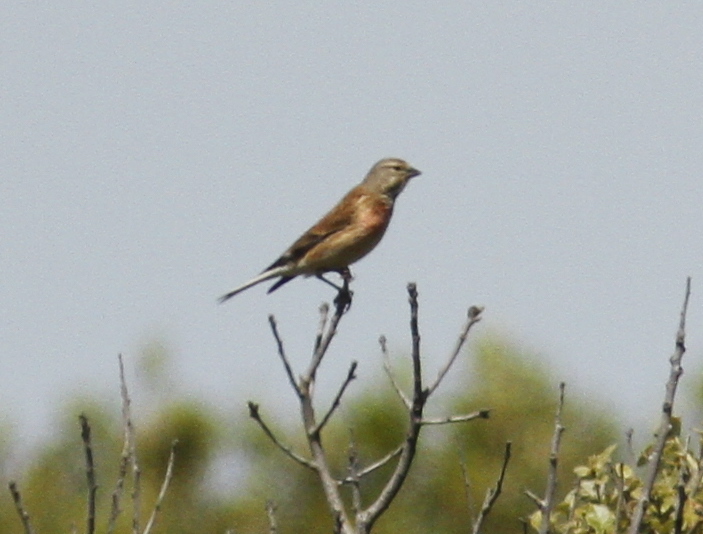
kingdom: Animalia
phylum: Chordata
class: Aves
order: Passeriformes
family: Fringillidae
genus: Linaria
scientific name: Linaria cannabina
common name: Common linnet
